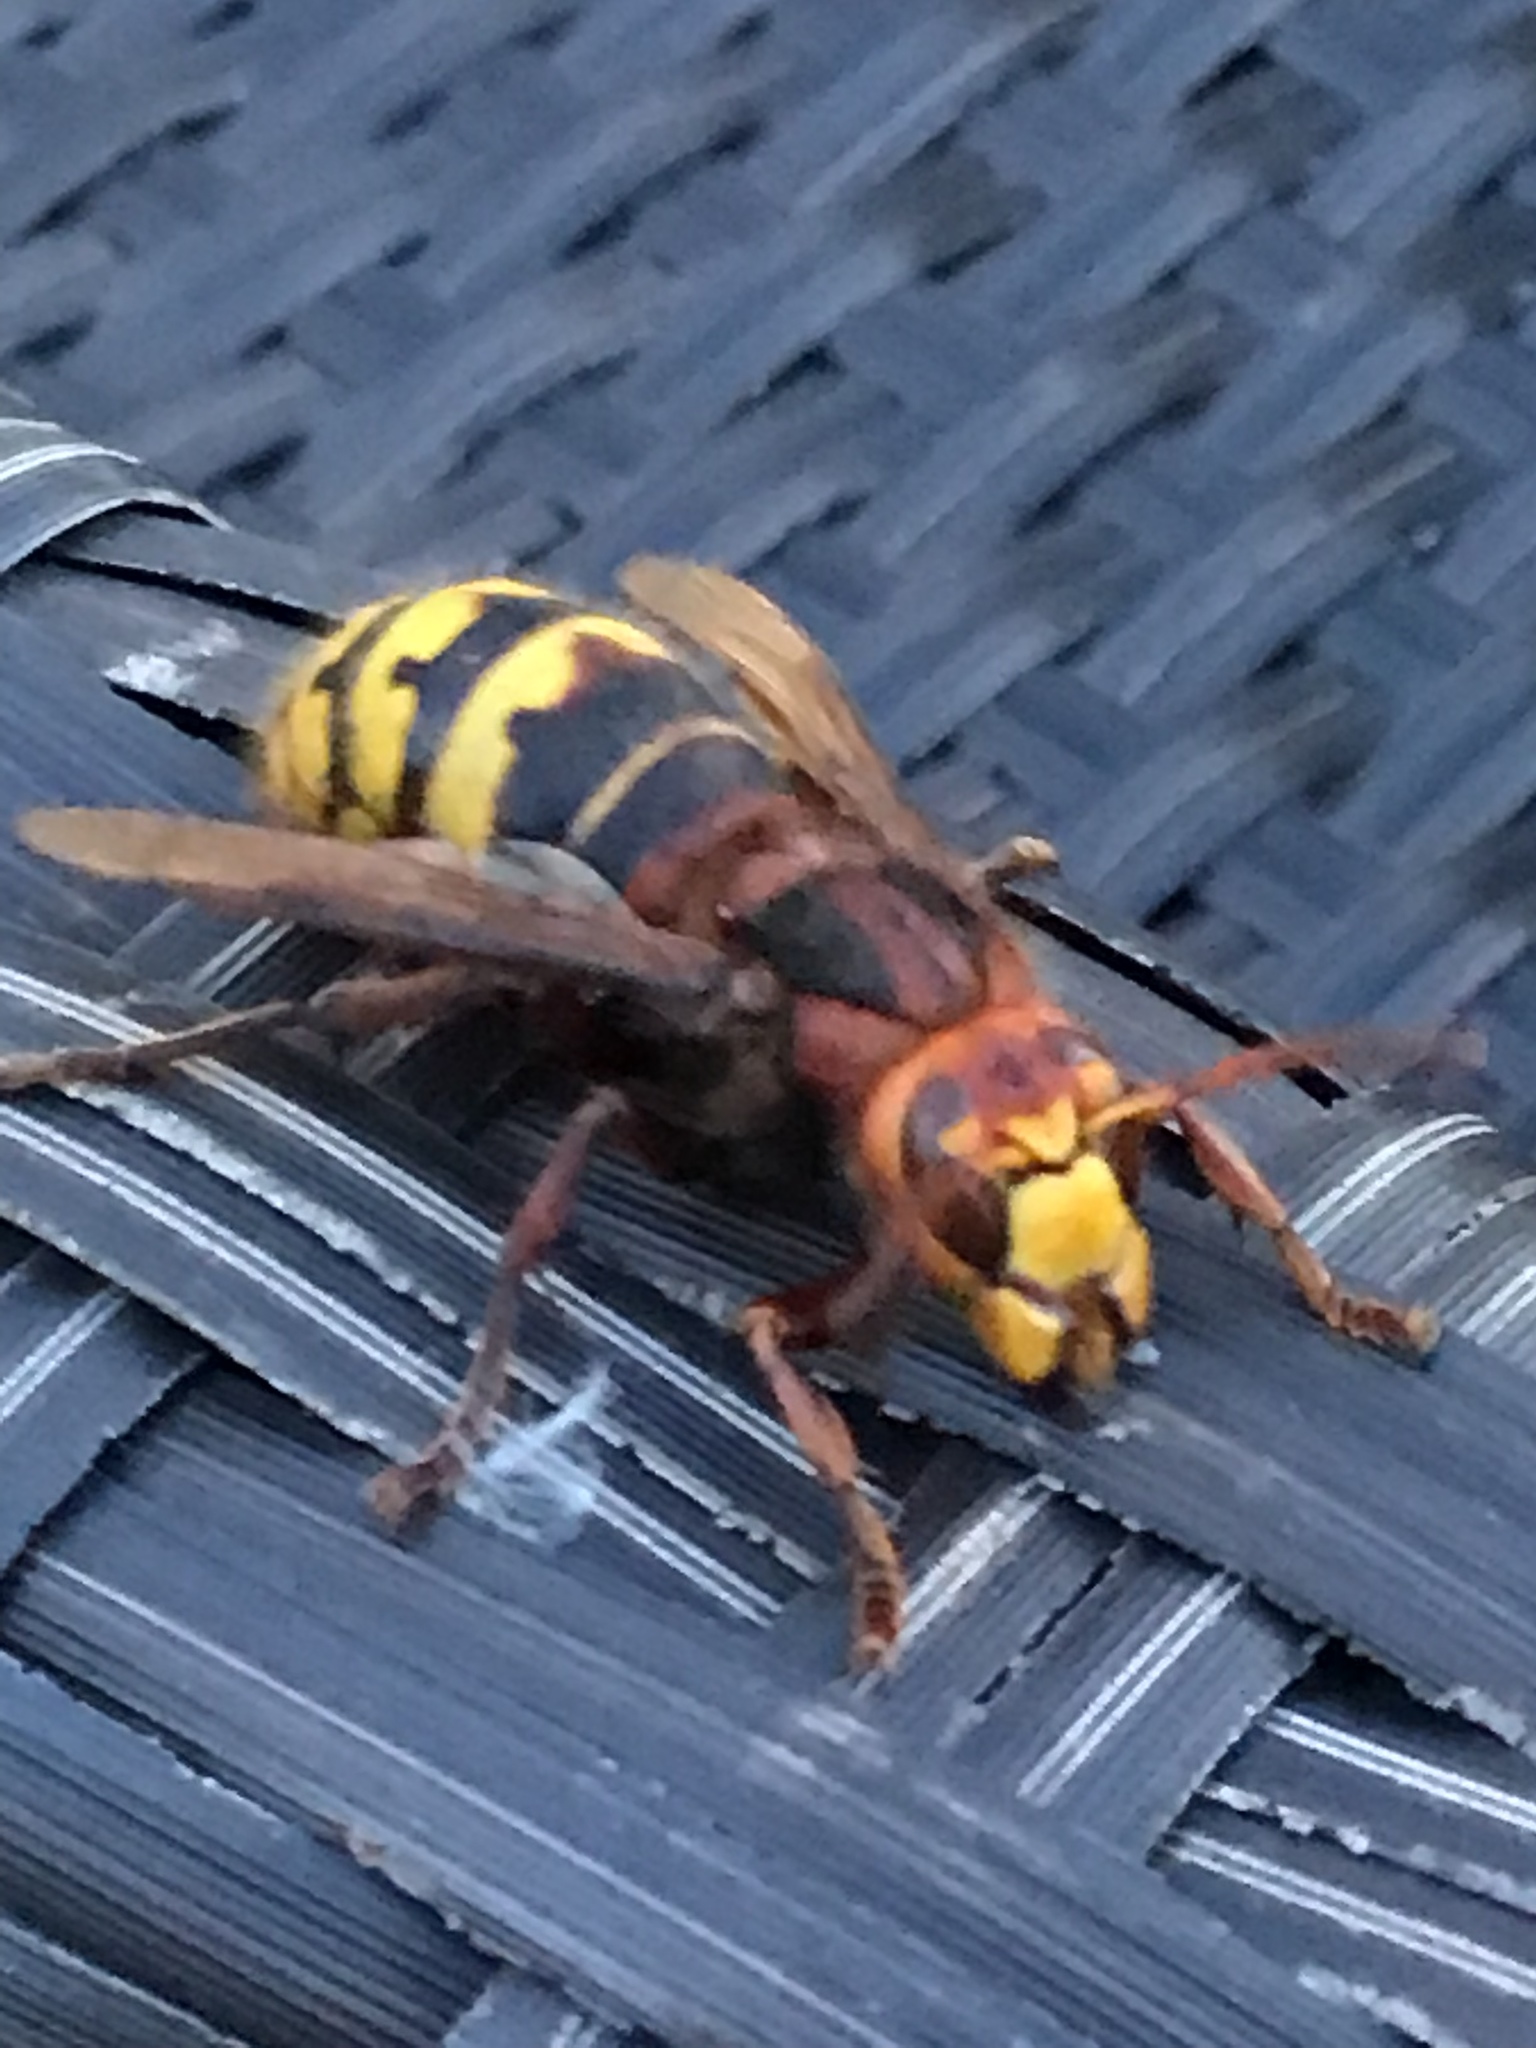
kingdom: Animalia
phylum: Arthropoda
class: Insecta
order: Hymenoptera
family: Vespidae
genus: Vespa
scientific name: Vespa crabro
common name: Hornet
